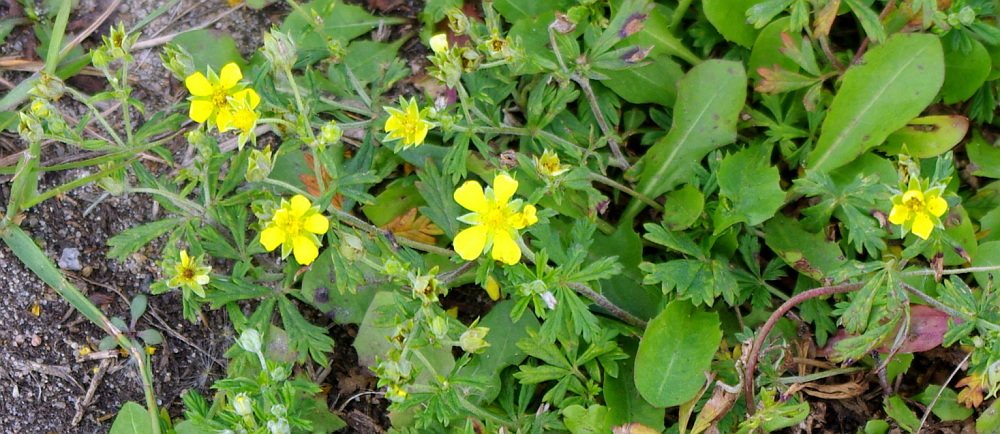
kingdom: Plantae
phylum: Tracheophyta
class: Magnoliopsida
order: Rosales
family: Rosaceae
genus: Potentilla
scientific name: Potentilla argentea
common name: Hoary cinquefoil
